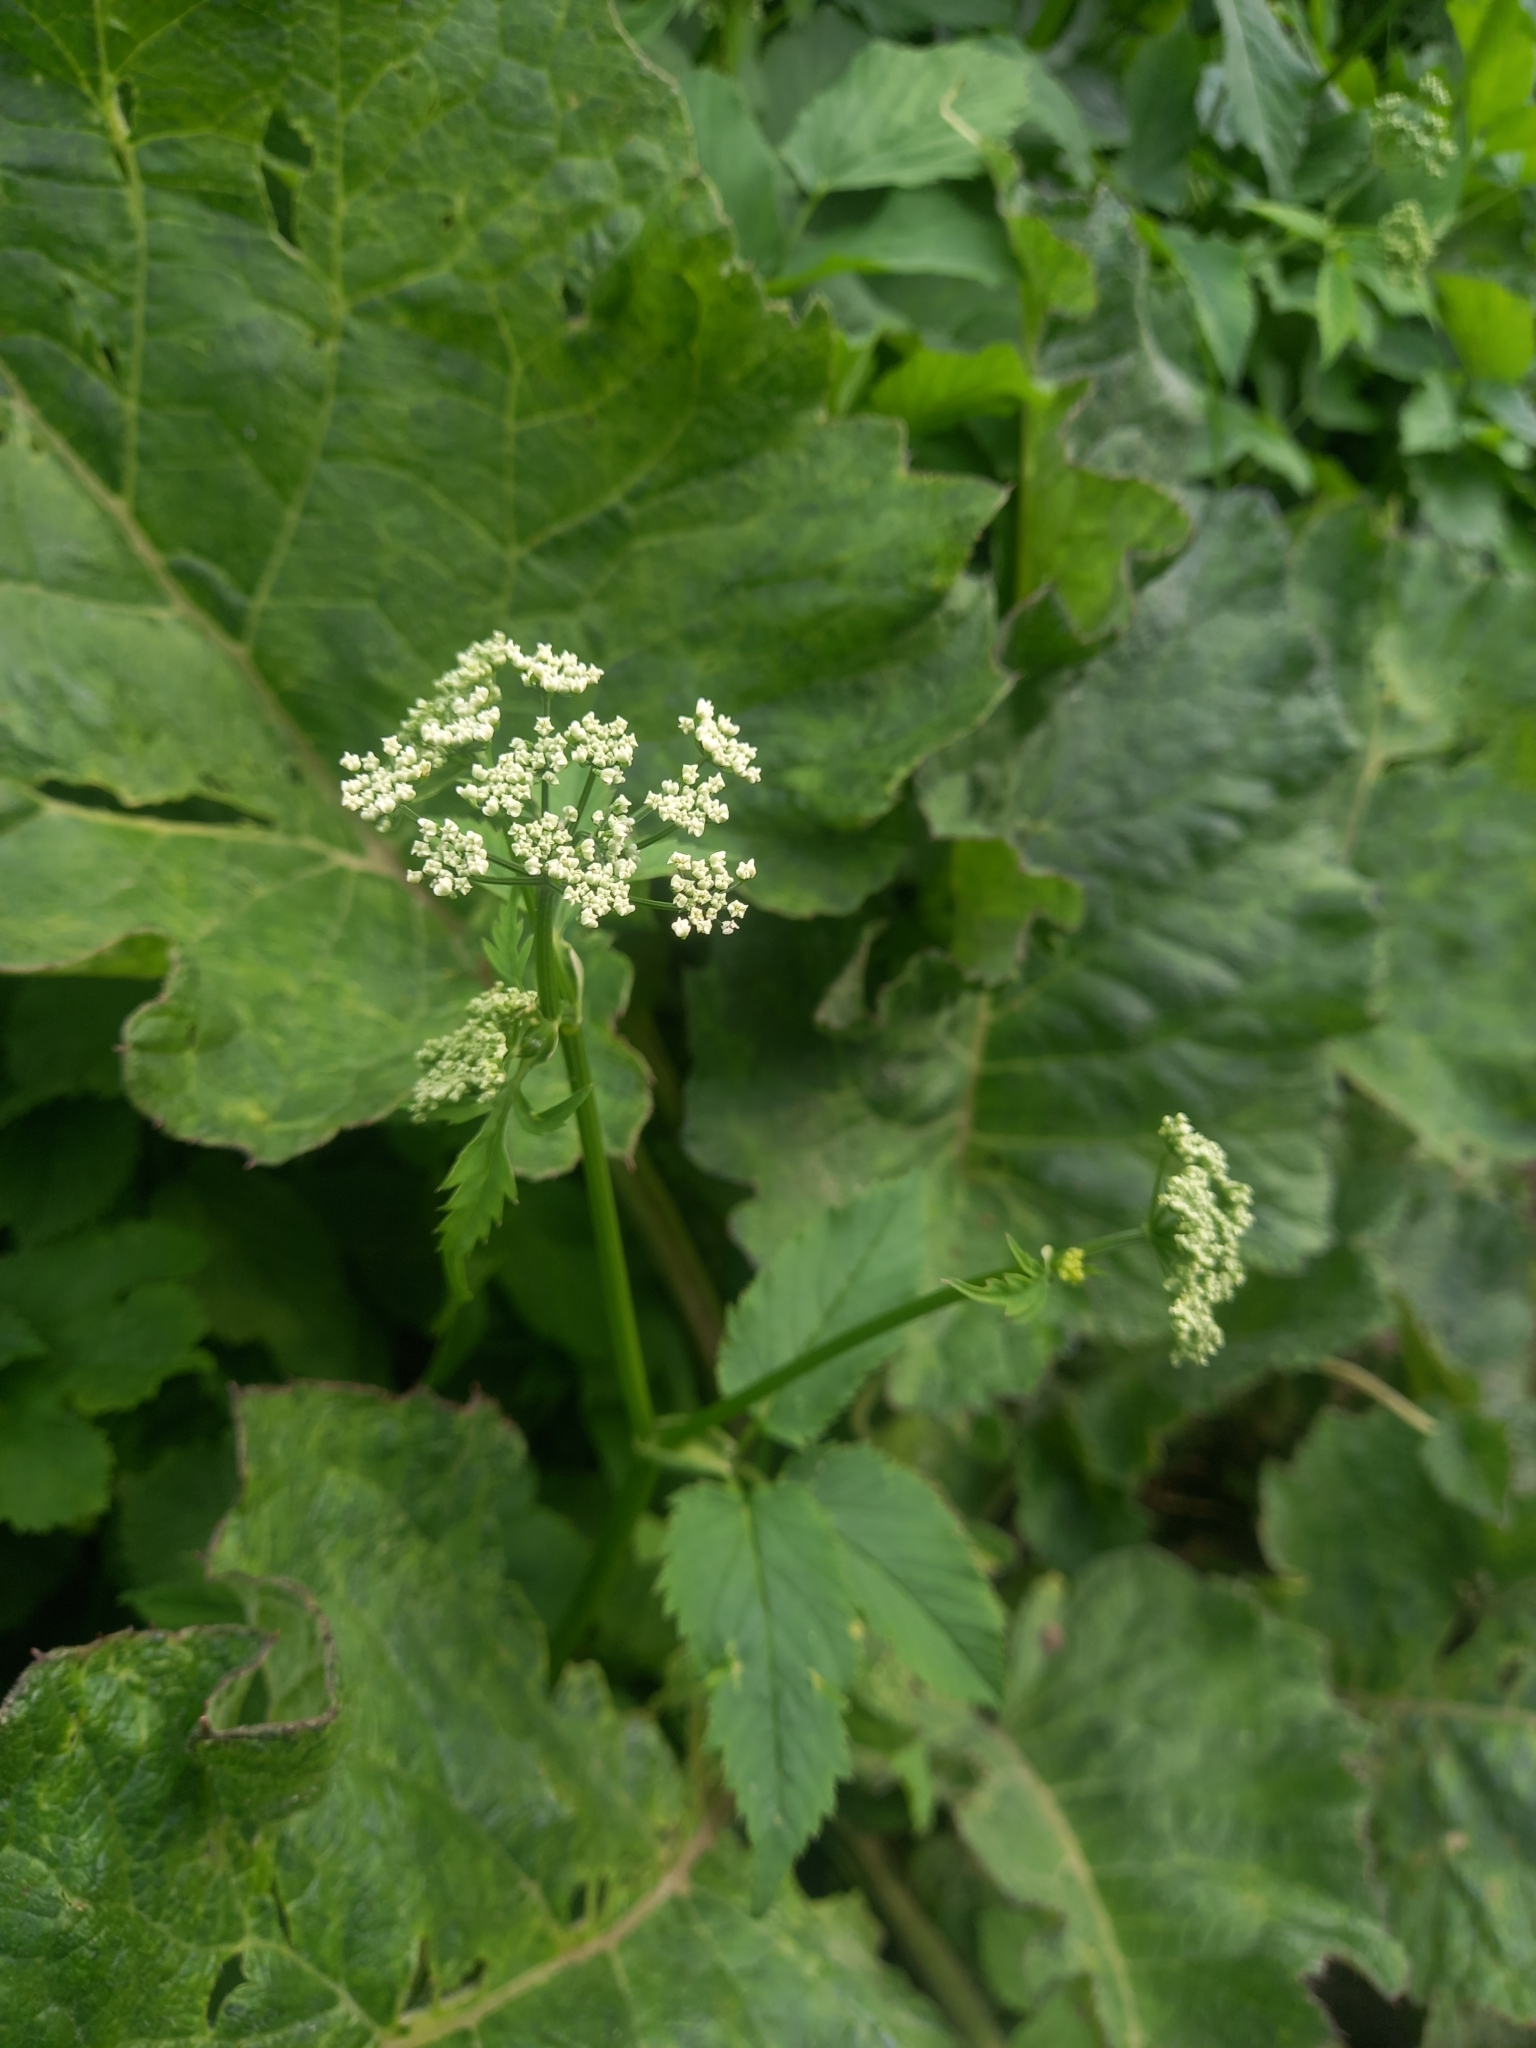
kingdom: Plantae
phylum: Tracheophyta
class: Magnoliopsida
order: Apiales
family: Apiaceae
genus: Aegopodium
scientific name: Aegopodium podagraria
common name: Ground-elder
